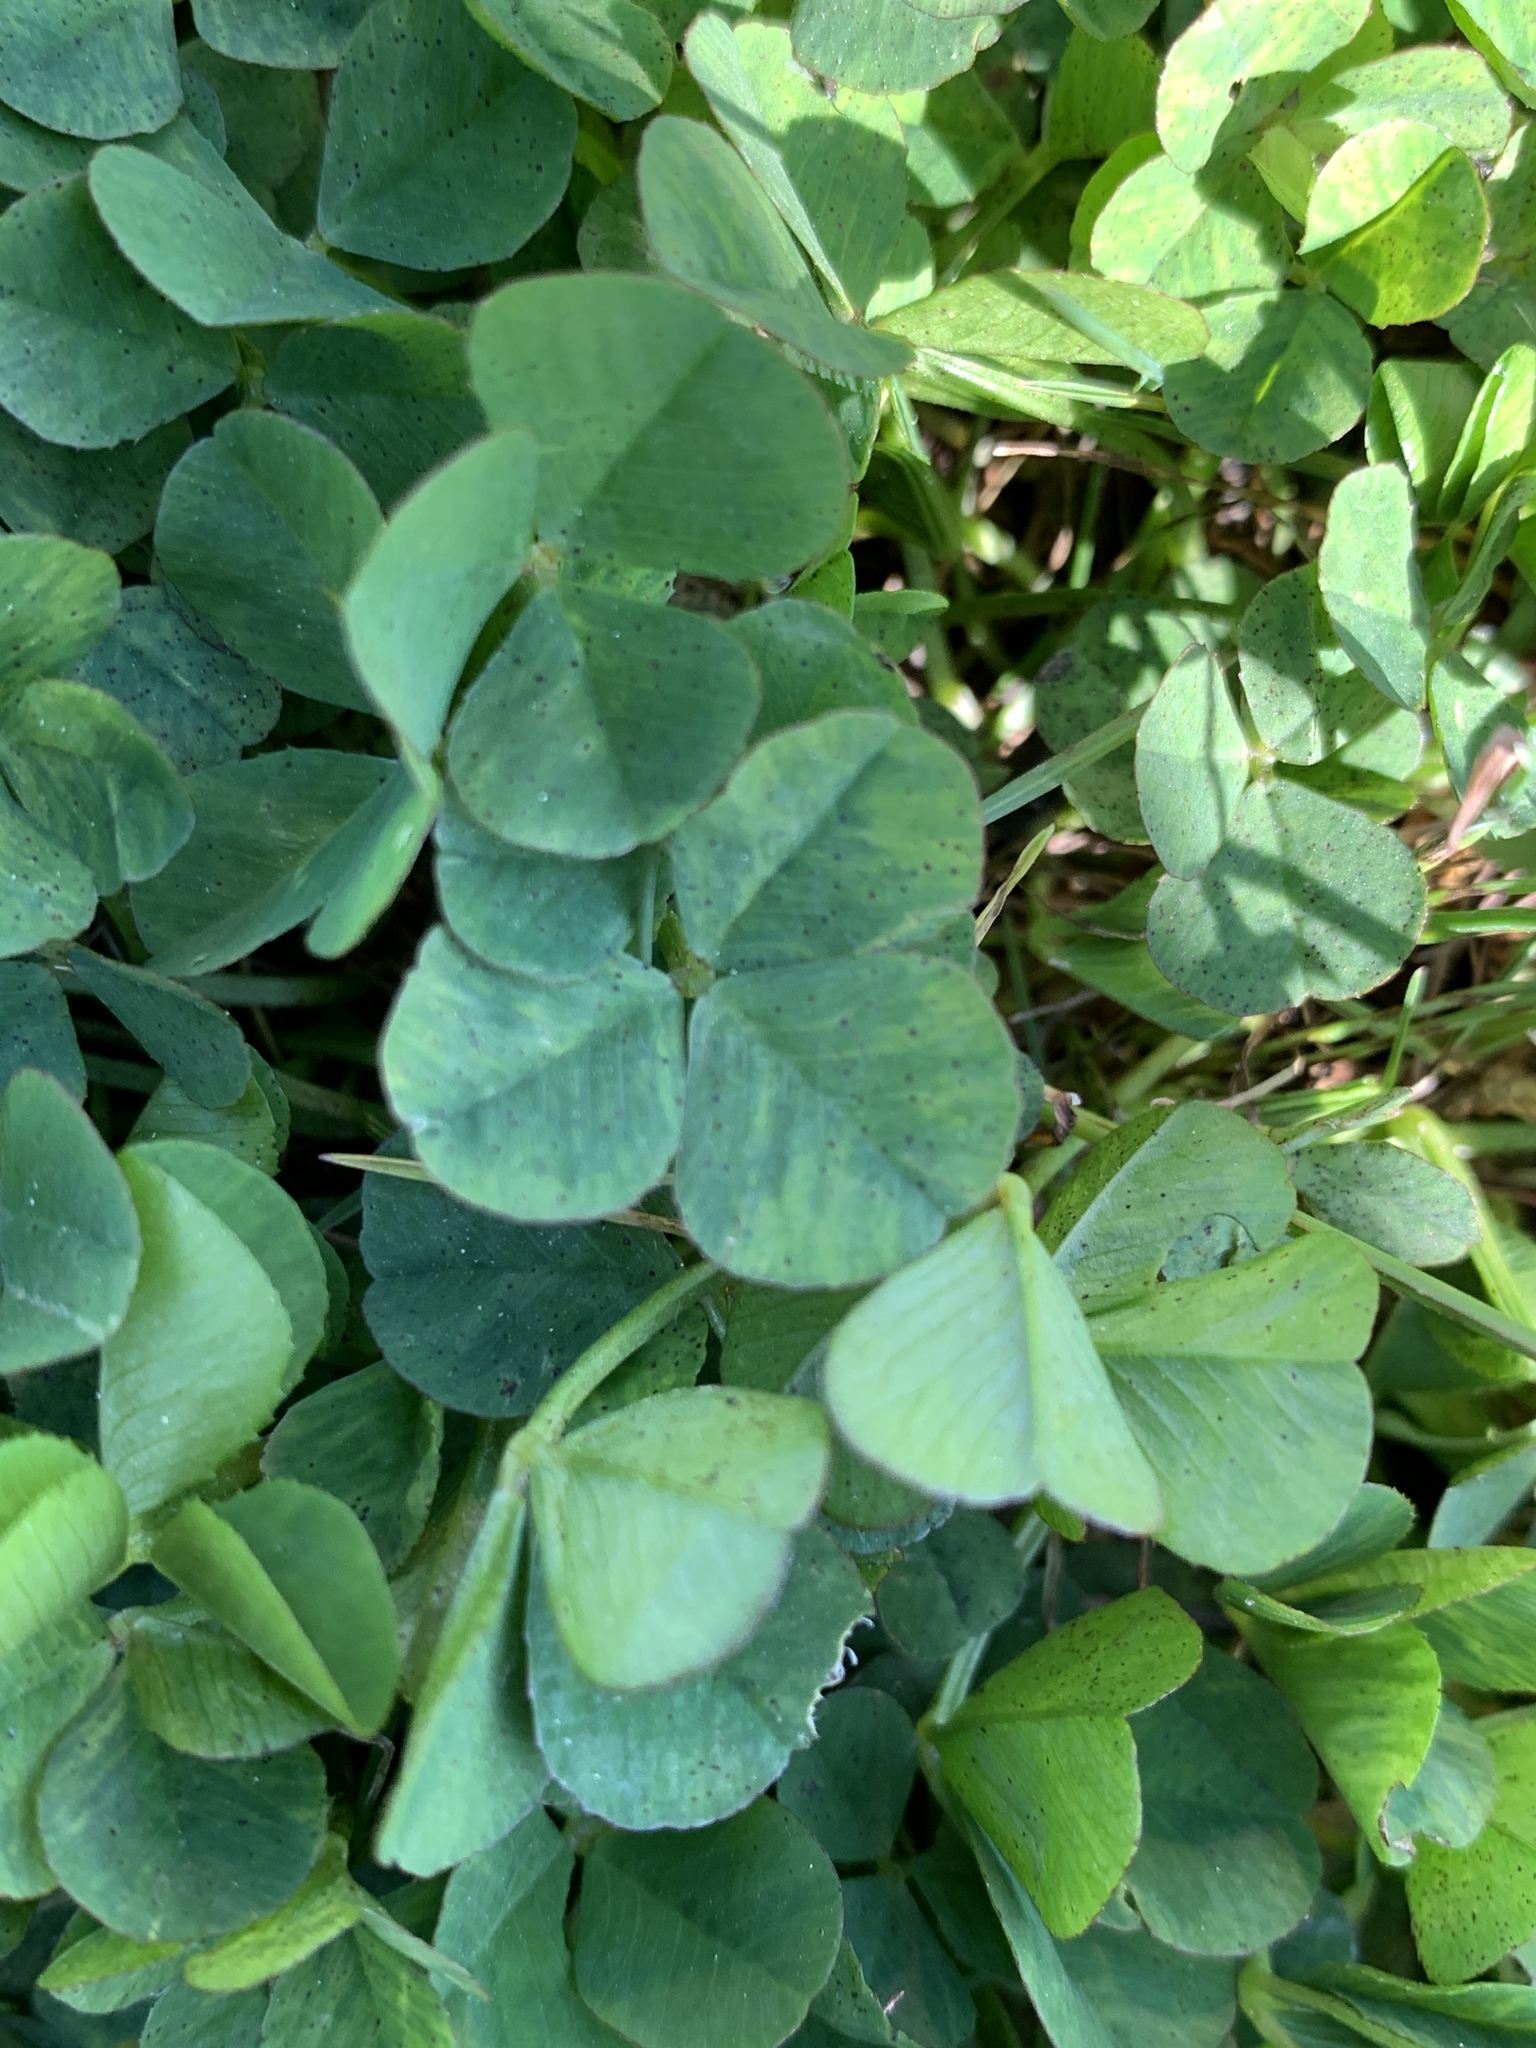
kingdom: Plantae
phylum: Tracheophyta
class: Magnoliopsida
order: Fabales
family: Fabaceae
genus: Trifolium
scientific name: Trifolium repens
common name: White clover
